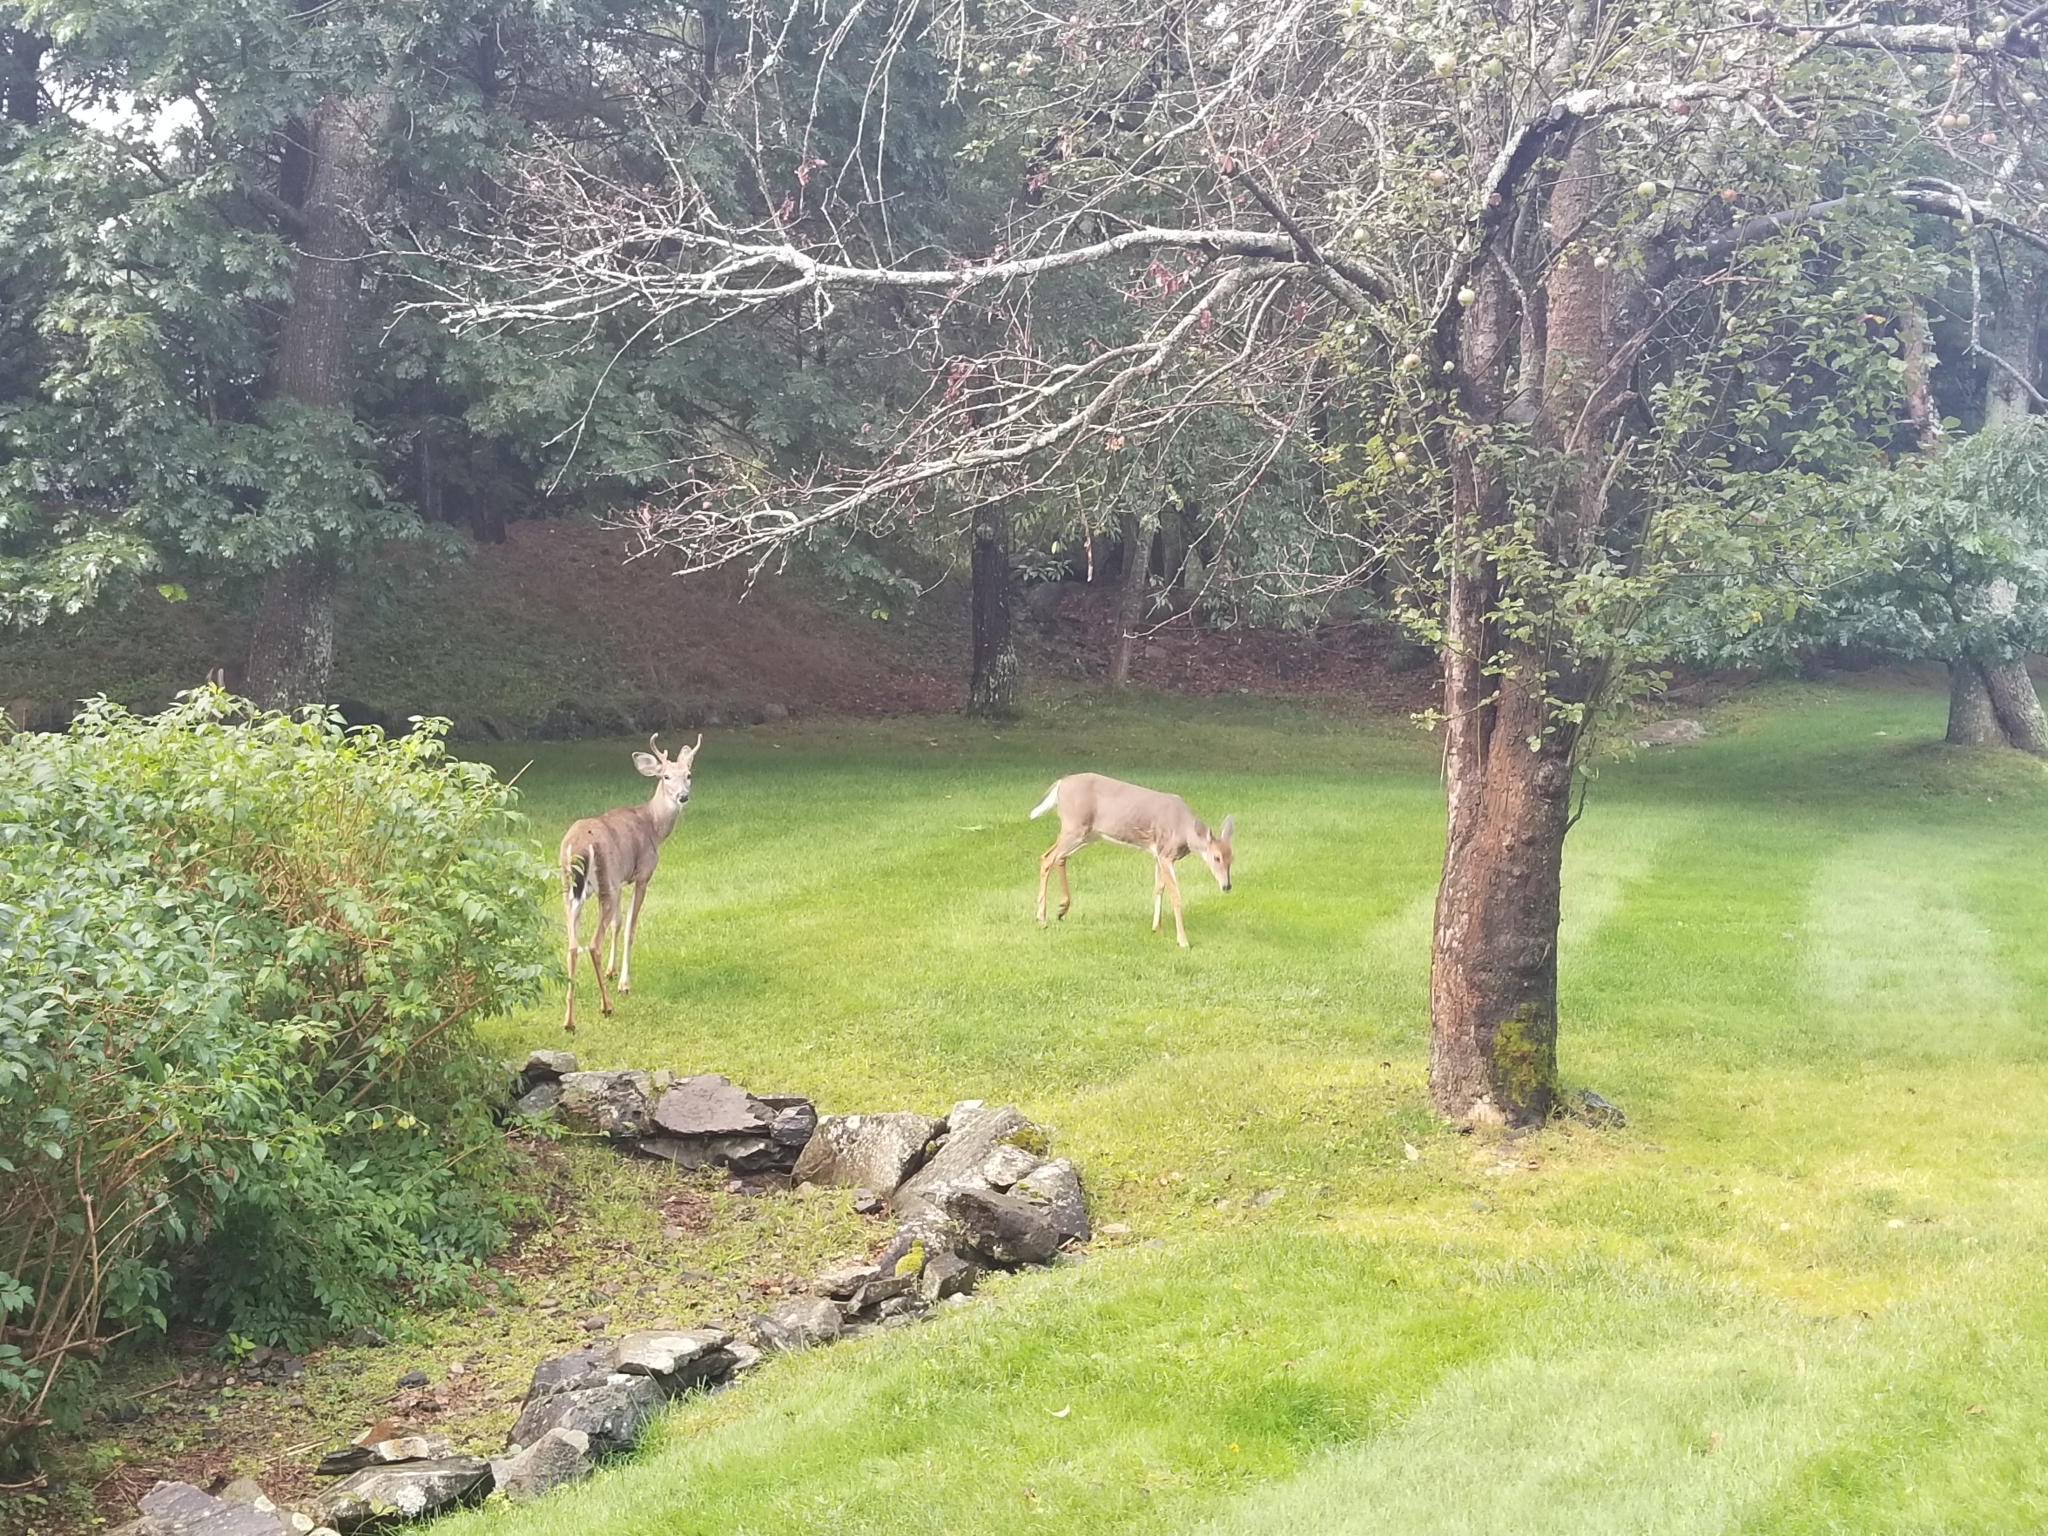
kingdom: Animalia
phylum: Chordata
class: Mammalia
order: Artiodactyla
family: Cervidae
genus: Odocoileus
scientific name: Odocoileus virginianus
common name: White-tailed deer
